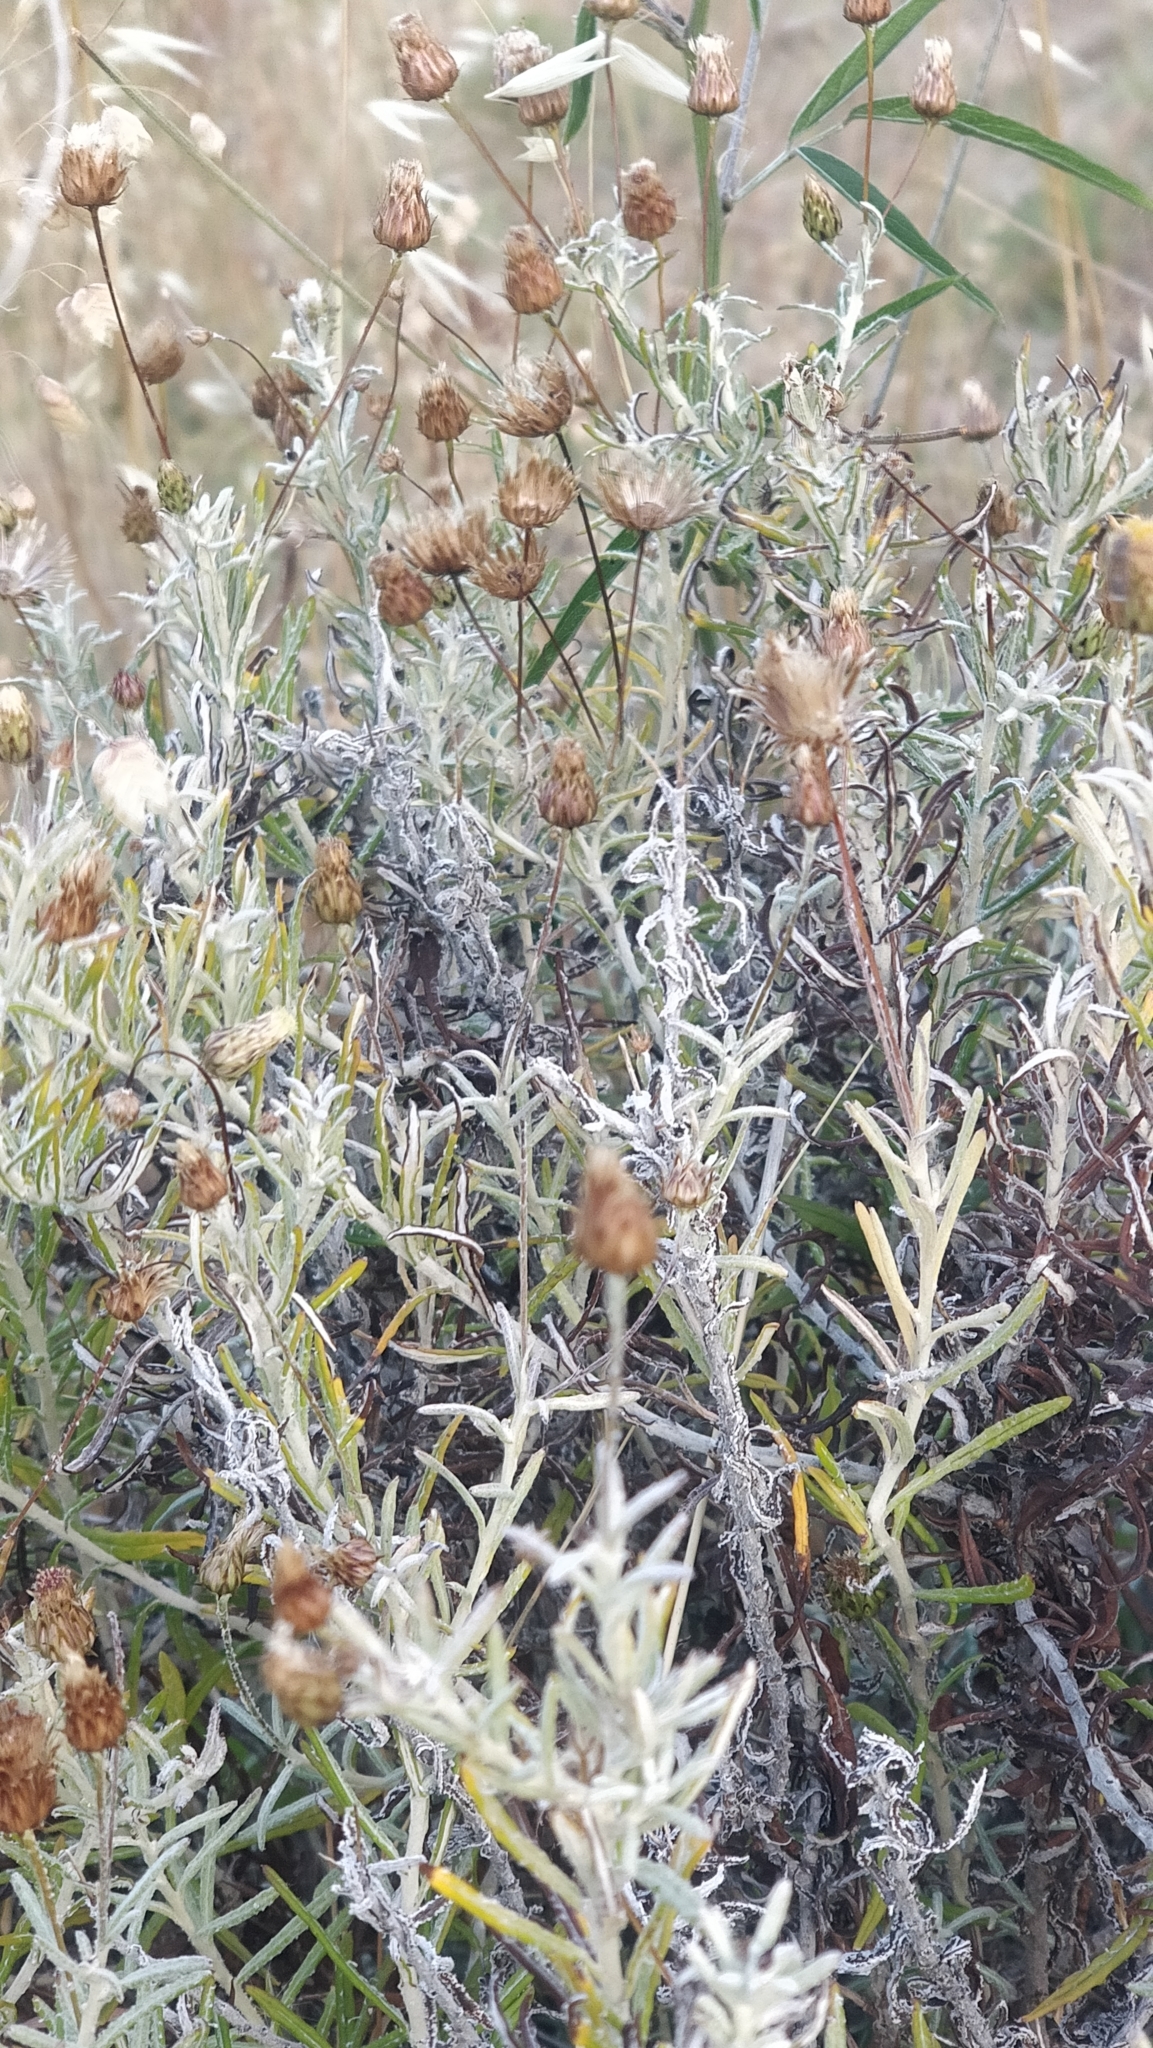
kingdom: Plantae
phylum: Tracheophyta
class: Magnoliopsida
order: Asterales
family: Asteraceae
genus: Phagnalon
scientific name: Phagnalon saxatile
